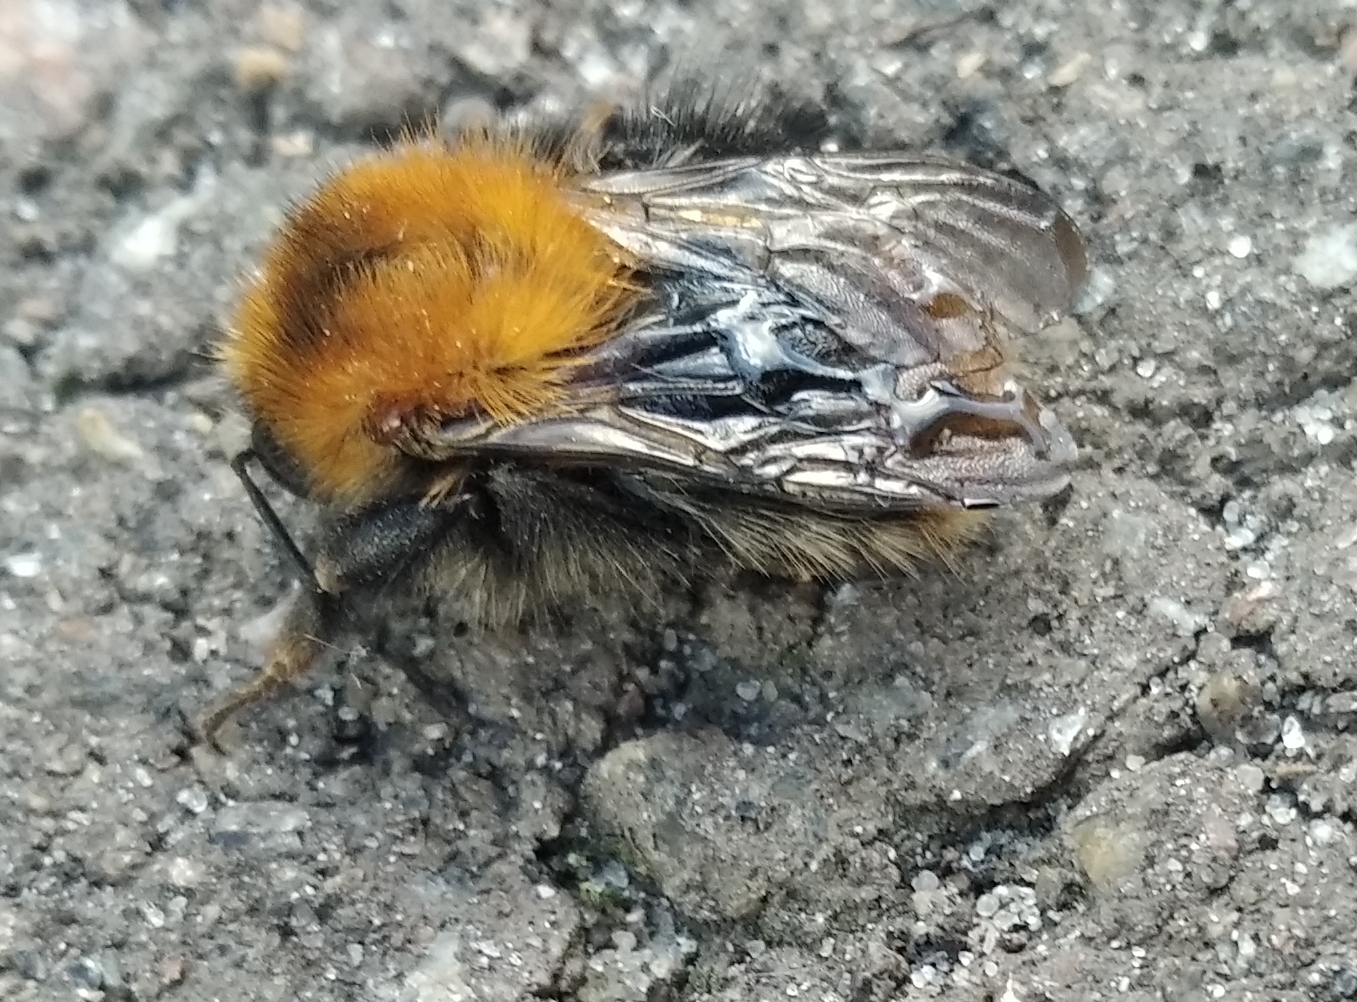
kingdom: Animalia
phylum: Arthropoda
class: Insecta
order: Hymenoptera
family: Apidae
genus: Bombus
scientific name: Bombus pascuorum
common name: Common carder bee
